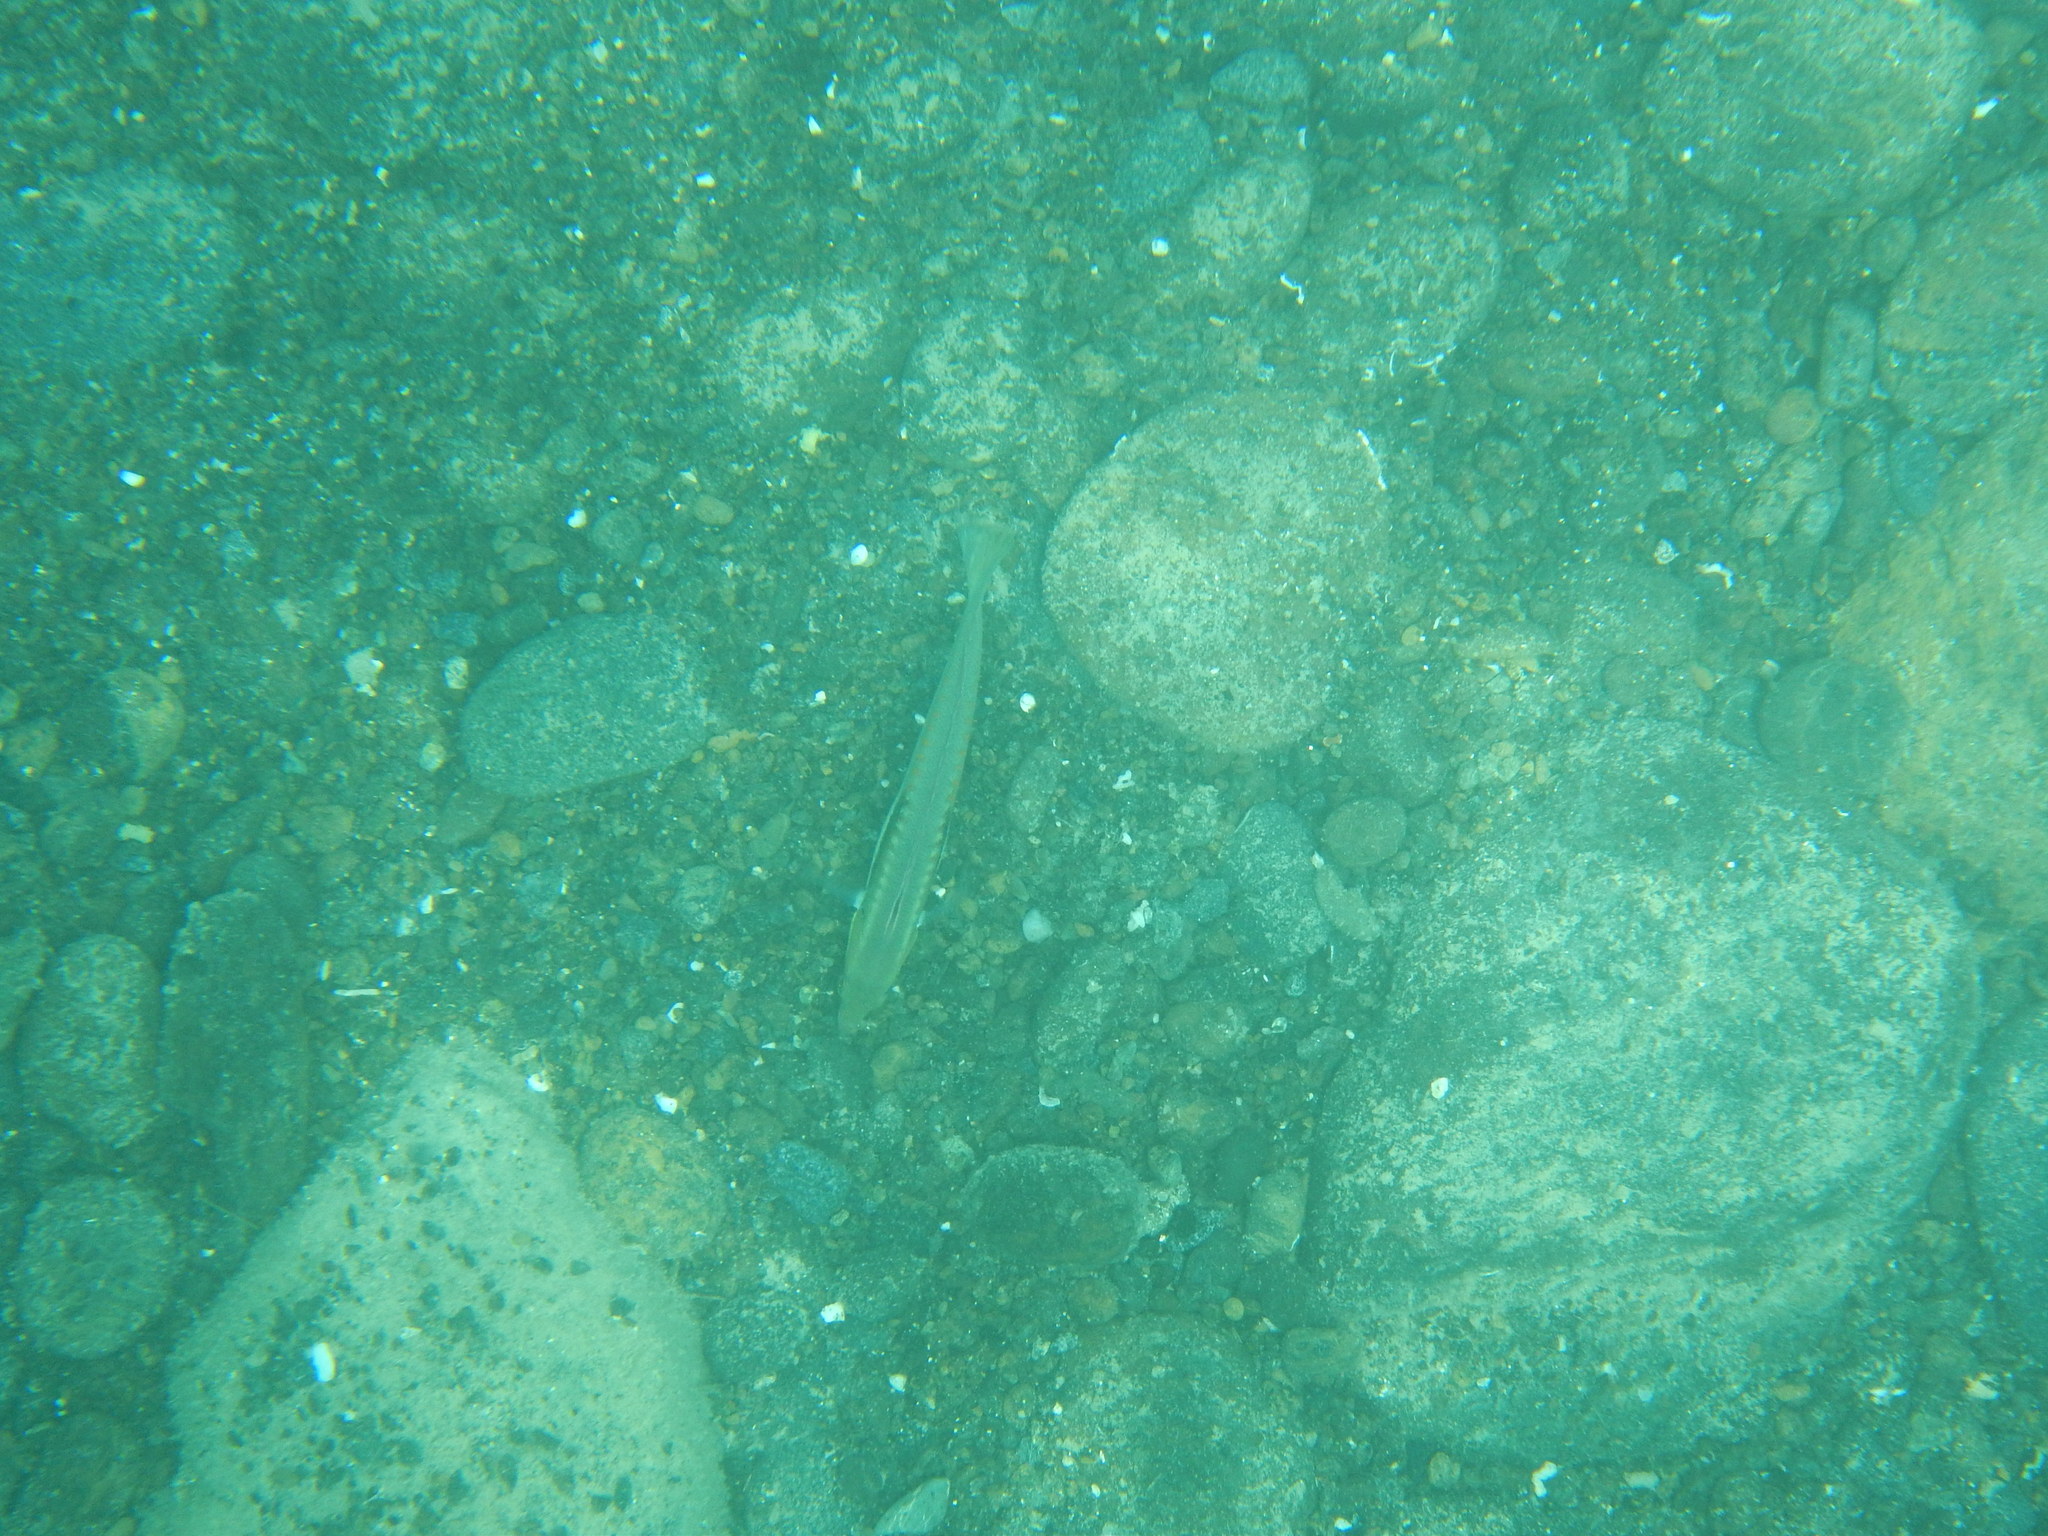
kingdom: Animalia
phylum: Chordata
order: Perciformes
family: Labridae
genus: Coris
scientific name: Coris julis
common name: Rainbow wrasse
